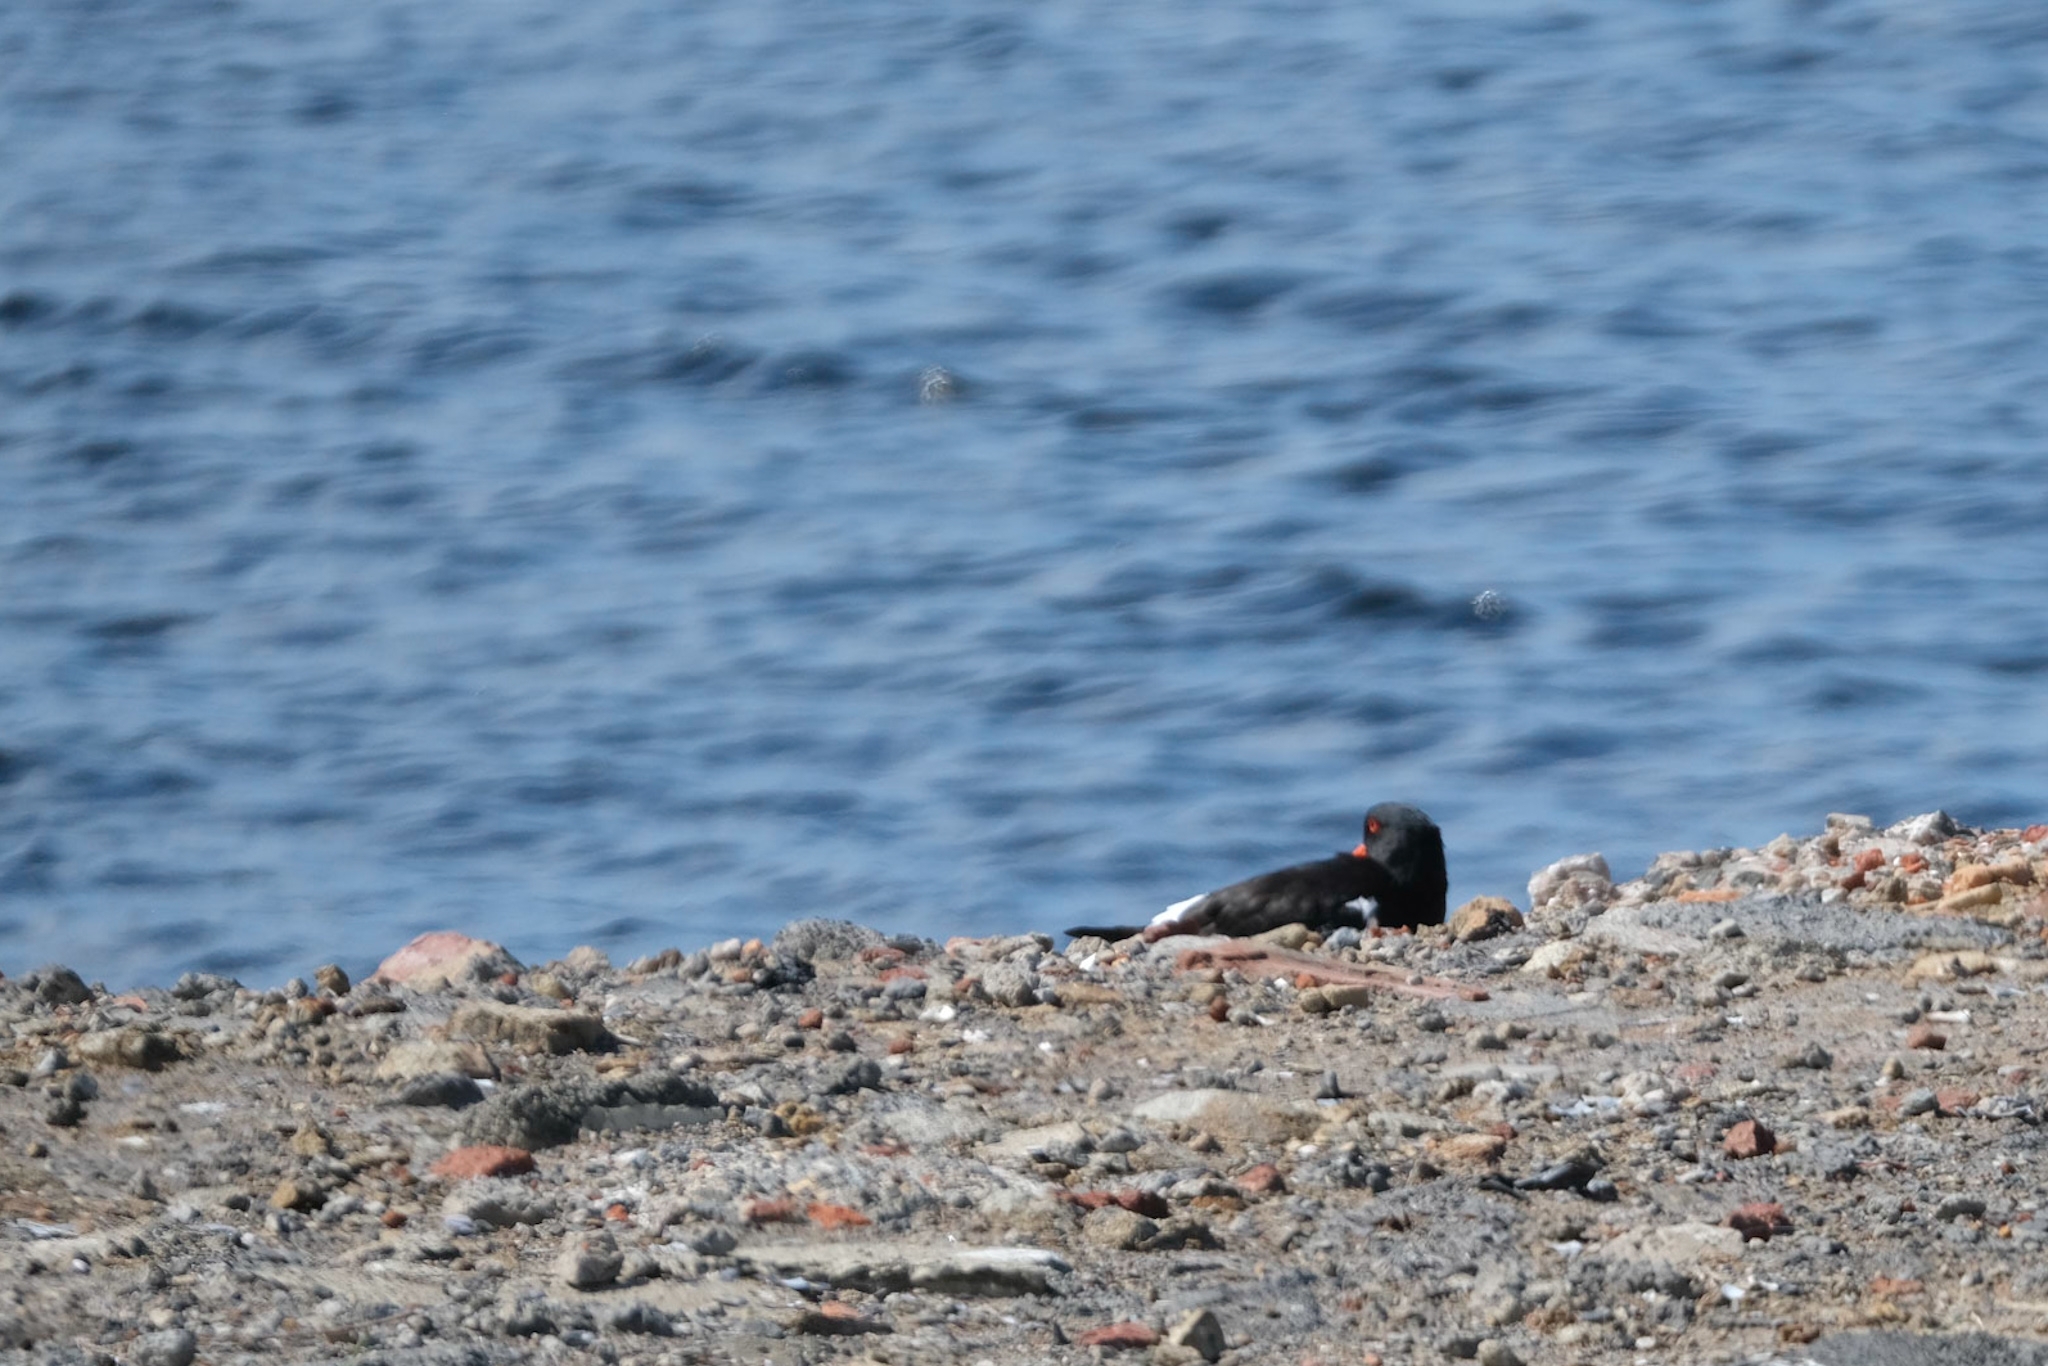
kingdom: Animalia
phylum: Chordata
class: Aves
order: Charadriiformes
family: Haematopodidae
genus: Haematopus
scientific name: Haematopus longirostris
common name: Pied oystercatcher
